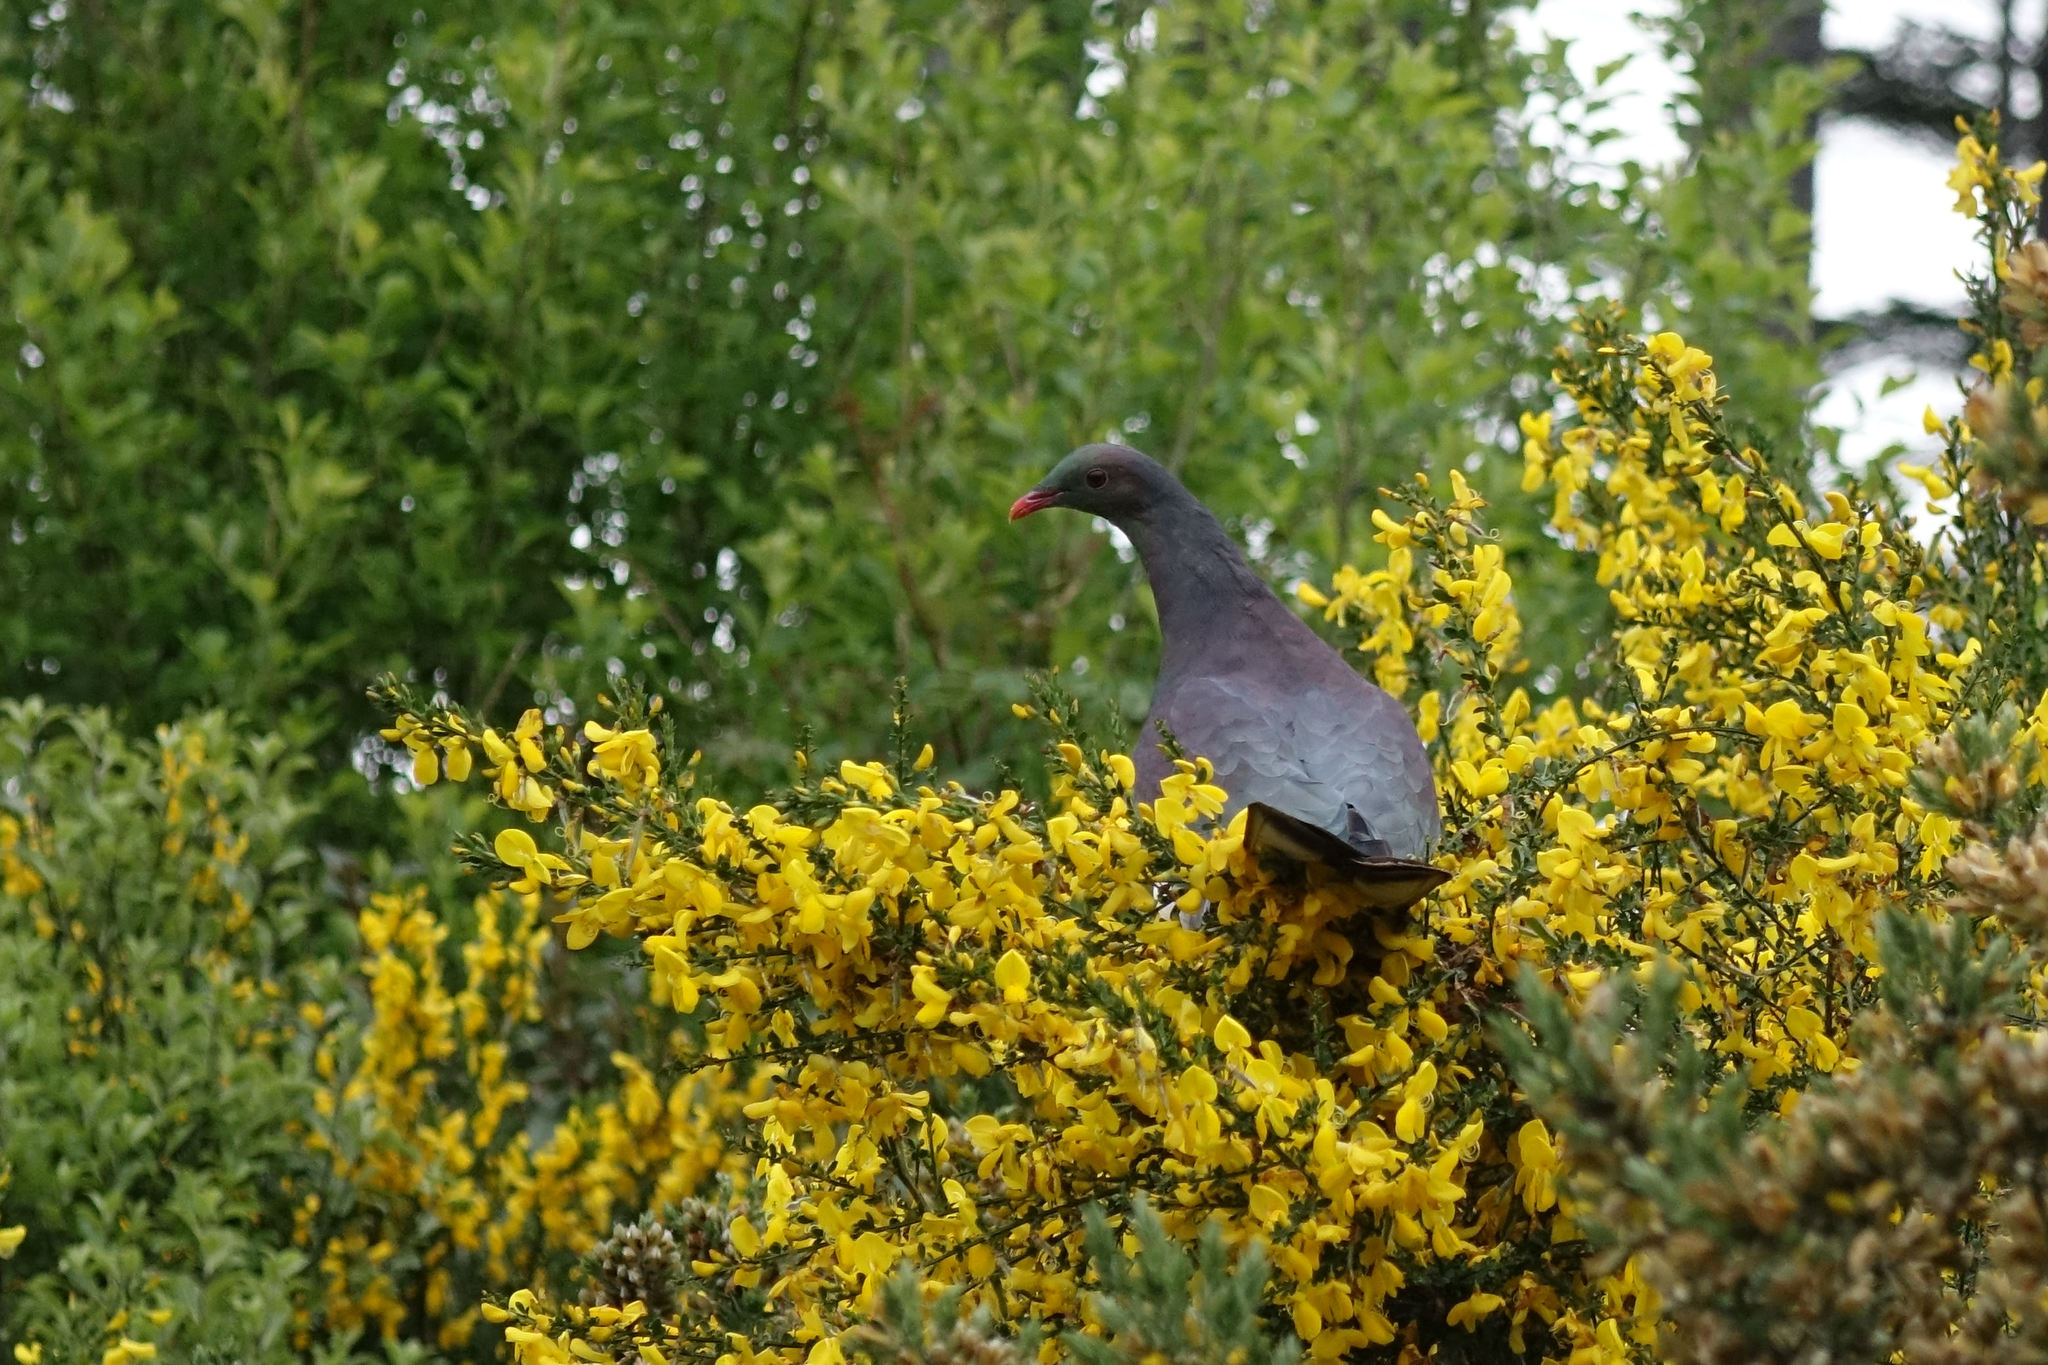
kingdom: Animalia
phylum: Chordata
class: Aves
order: Columbiformes
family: Columbidae
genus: Hemiphaga
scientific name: Hemiphaga novaeseelandiae
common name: New zealand pigeon
